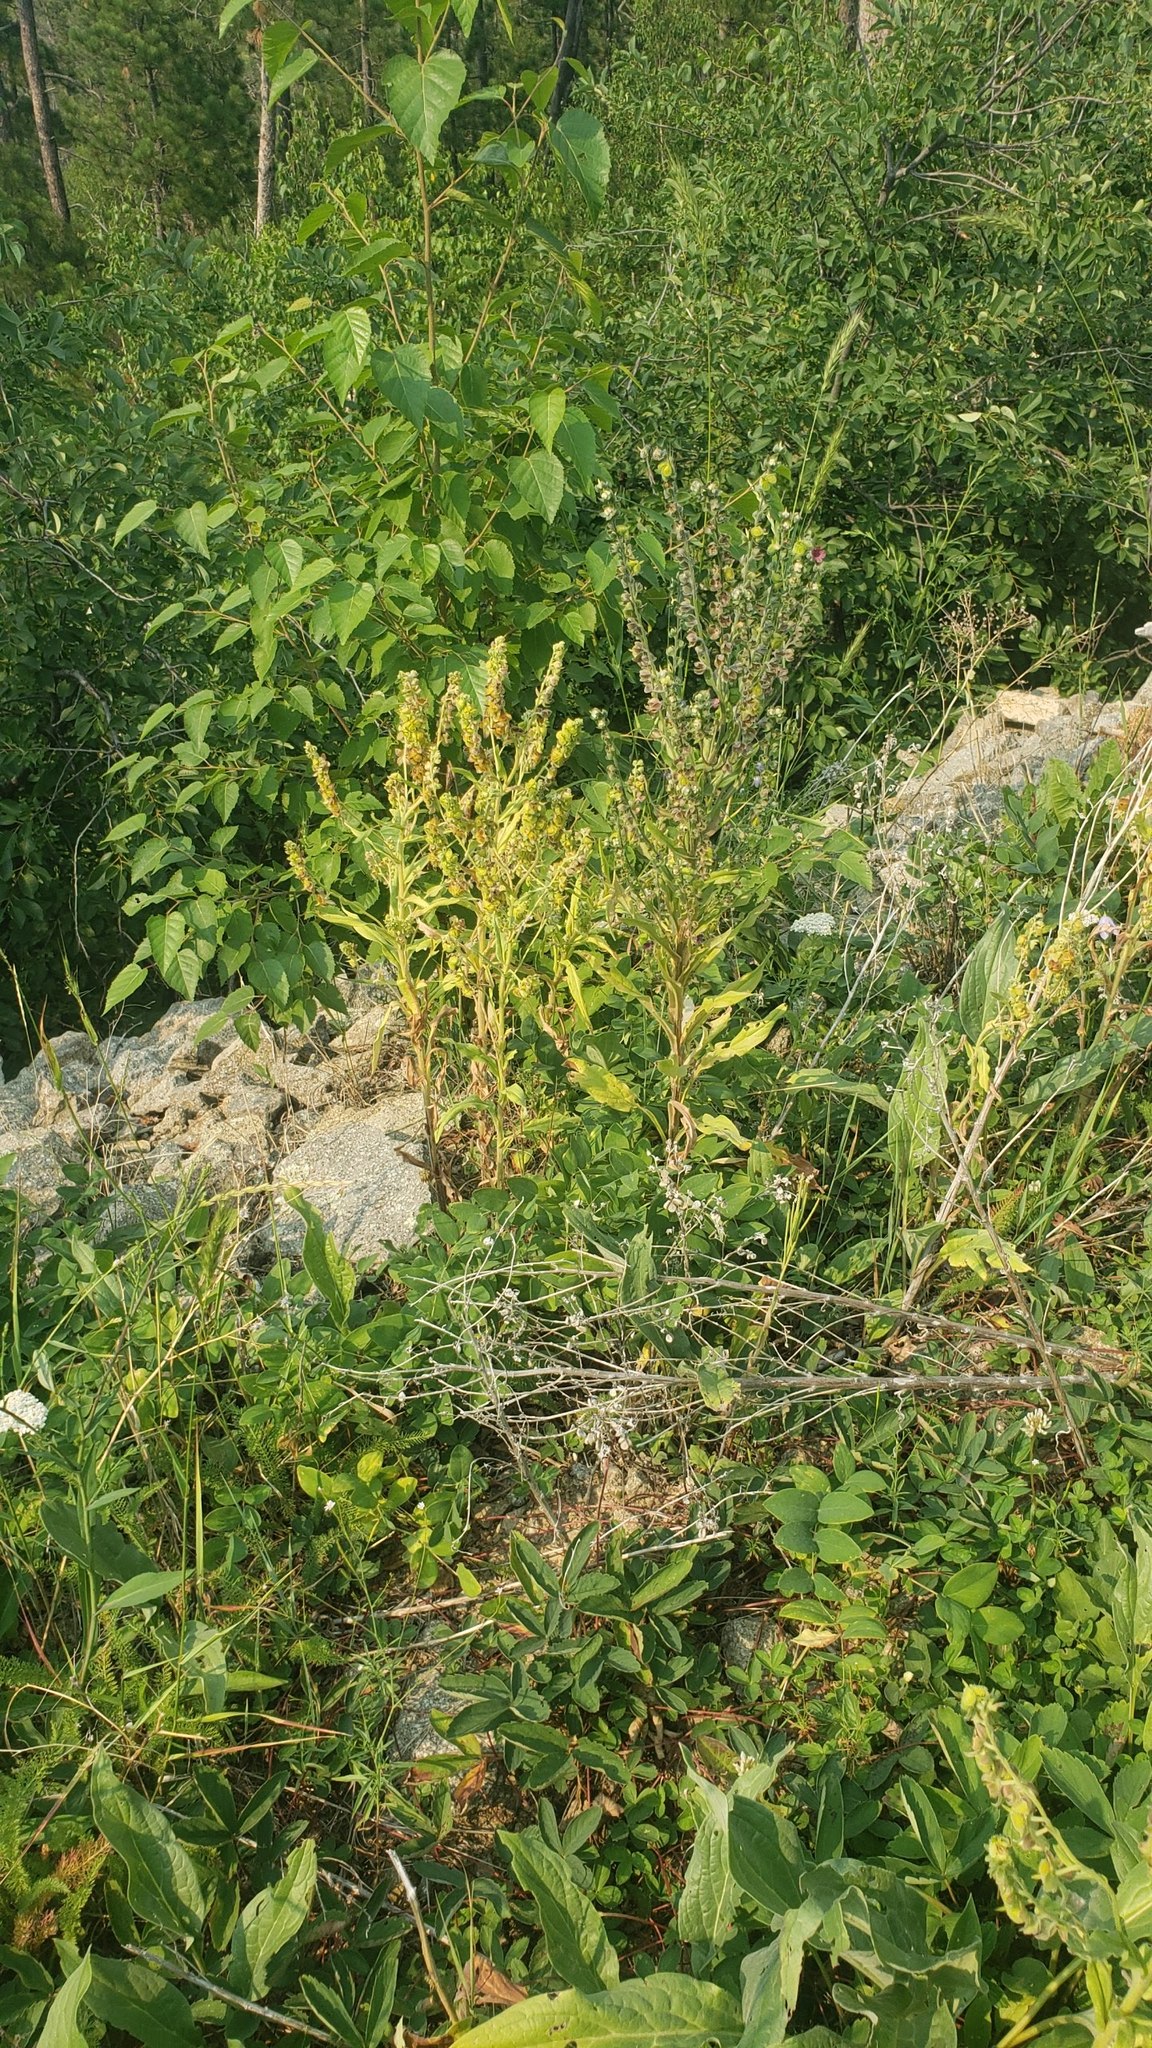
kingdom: Plantae
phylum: Tracheophyta
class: Magnoliopsida
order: Boraginales
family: Boraginaceae
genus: Cynoglossum
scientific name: Cynoglossum officinale
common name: Hound's-tongue
